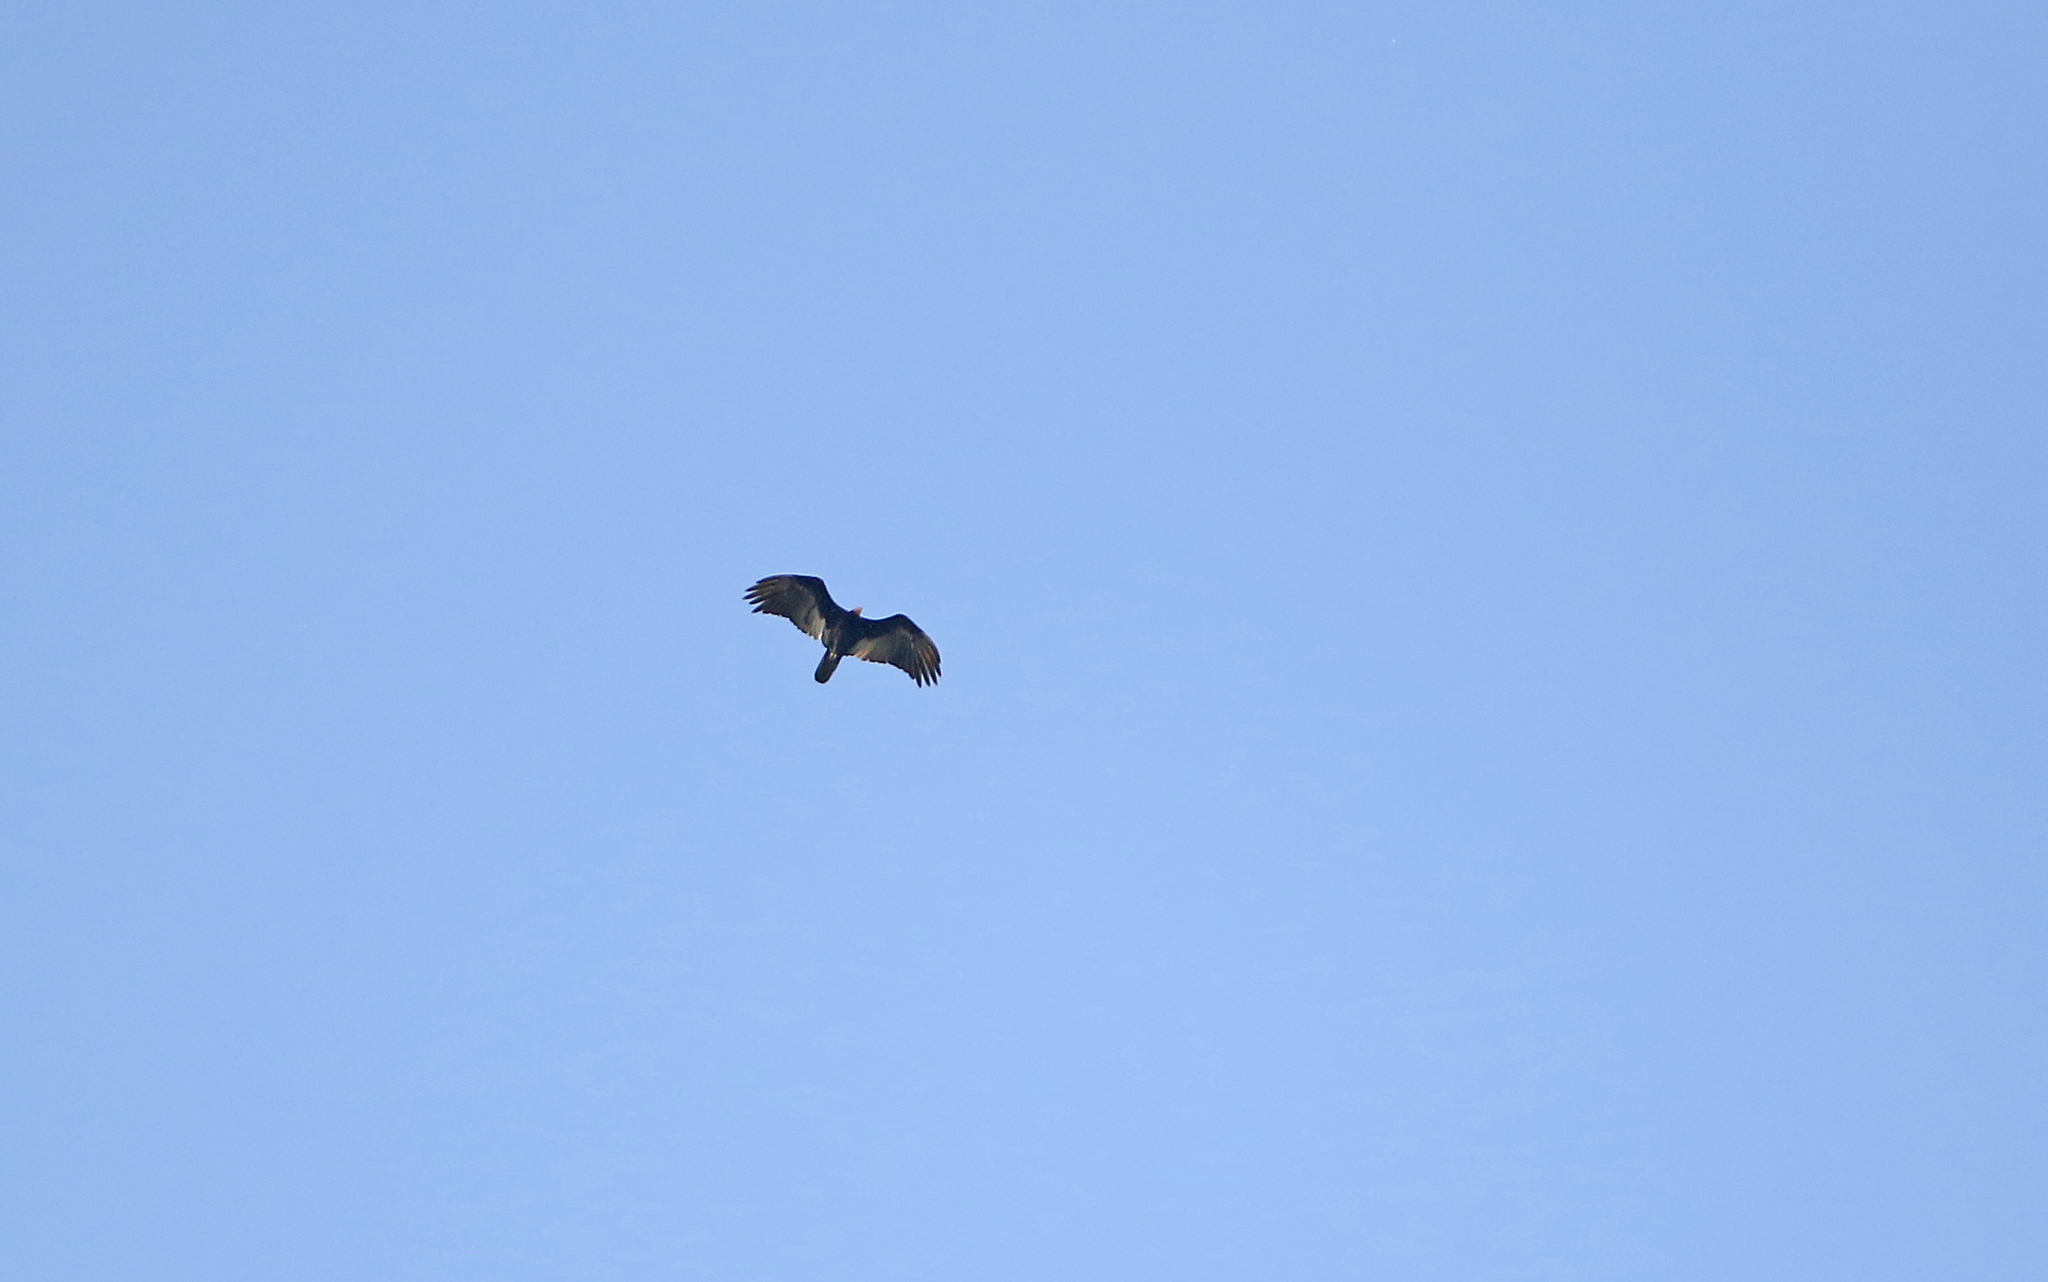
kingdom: Animalia
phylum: Chordata
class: Aves
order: Accipitriformes
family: Cathartidae
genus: Cathartes
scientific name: Cathartes melambrotus
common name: Greater yellow-headed vulture
